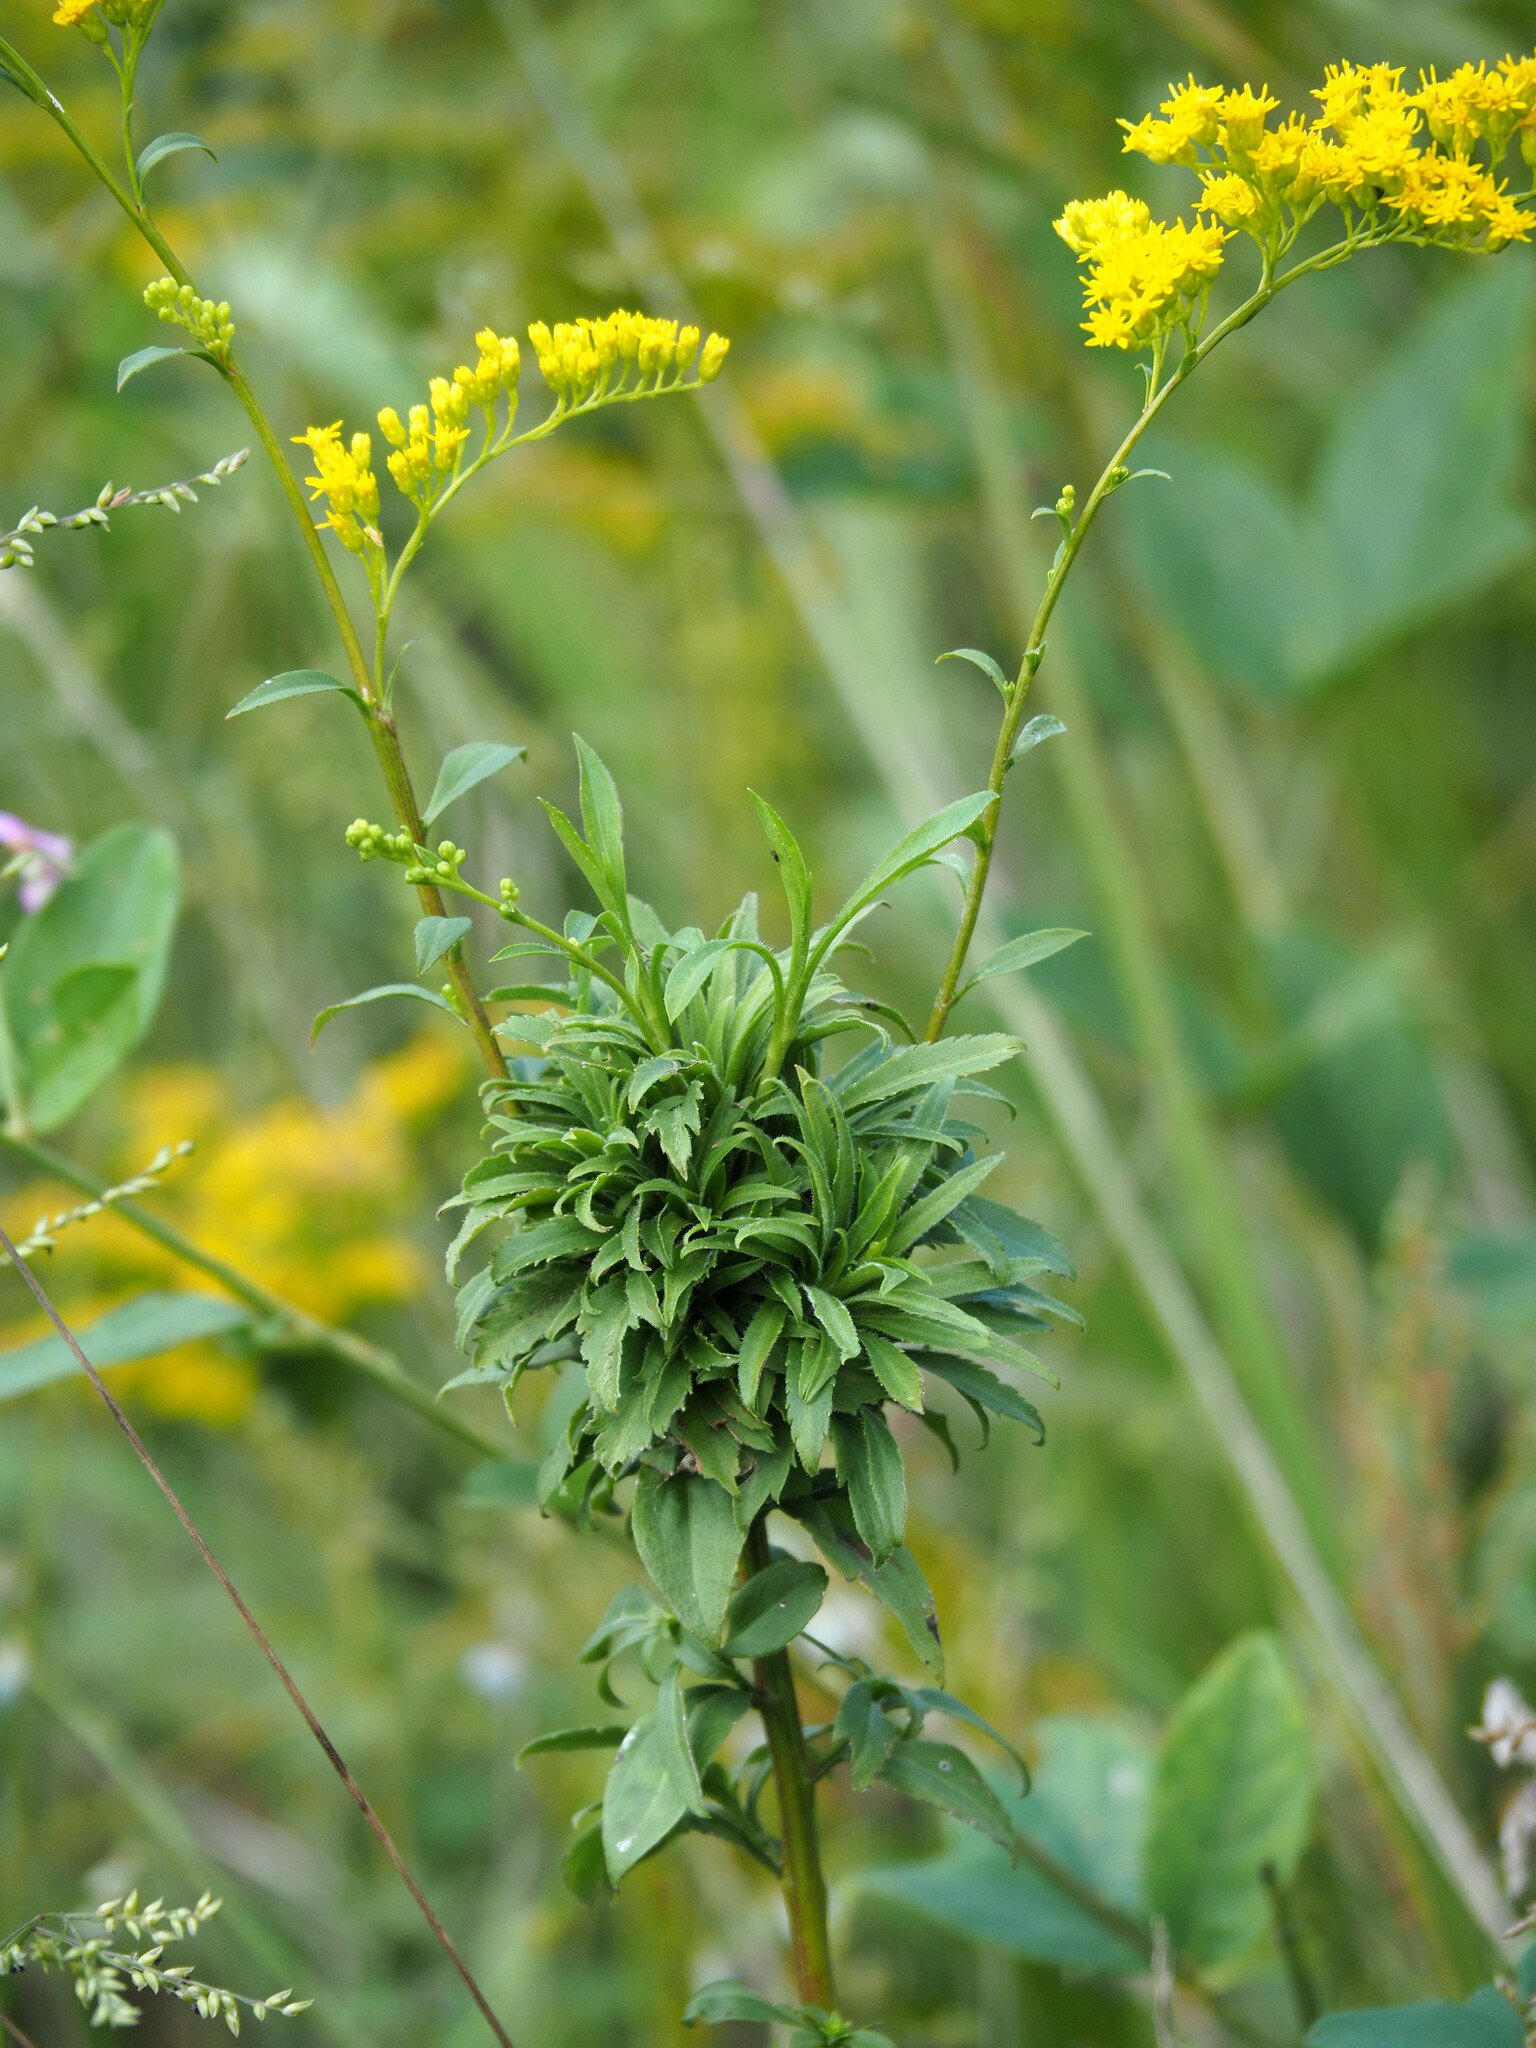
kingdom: Animalia
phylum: Arthropoda
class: Insecta
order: Diptera
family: Cecidomyiidae
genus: Asphondylia
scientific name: Asphondylia monacha
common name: Nun midge
